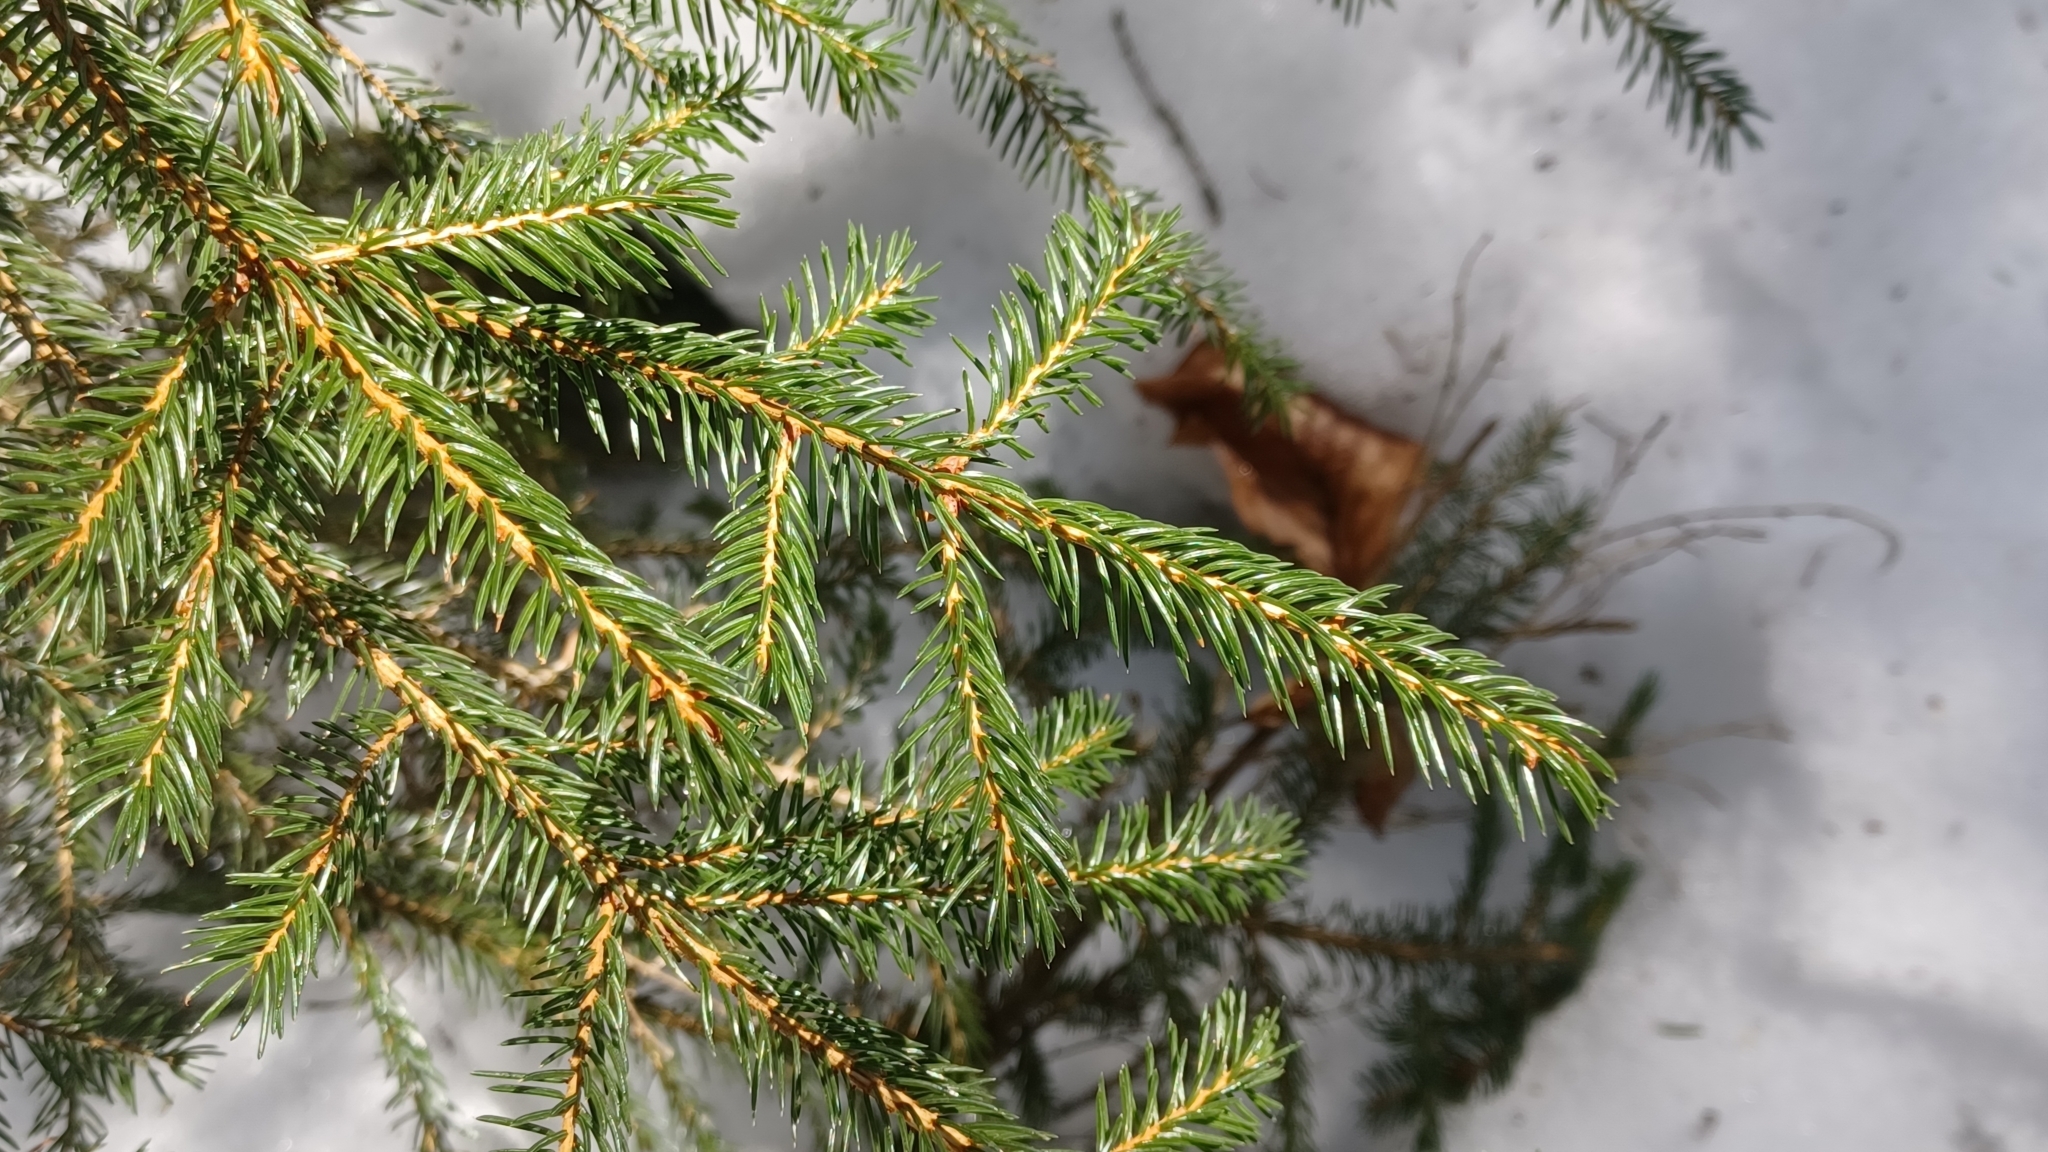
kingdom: Plantae
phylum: Tracheophyta
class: Pinopsida
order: Pinales
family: Pinaceae
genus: Picea
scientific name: Picea rubens
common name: Red spruce
